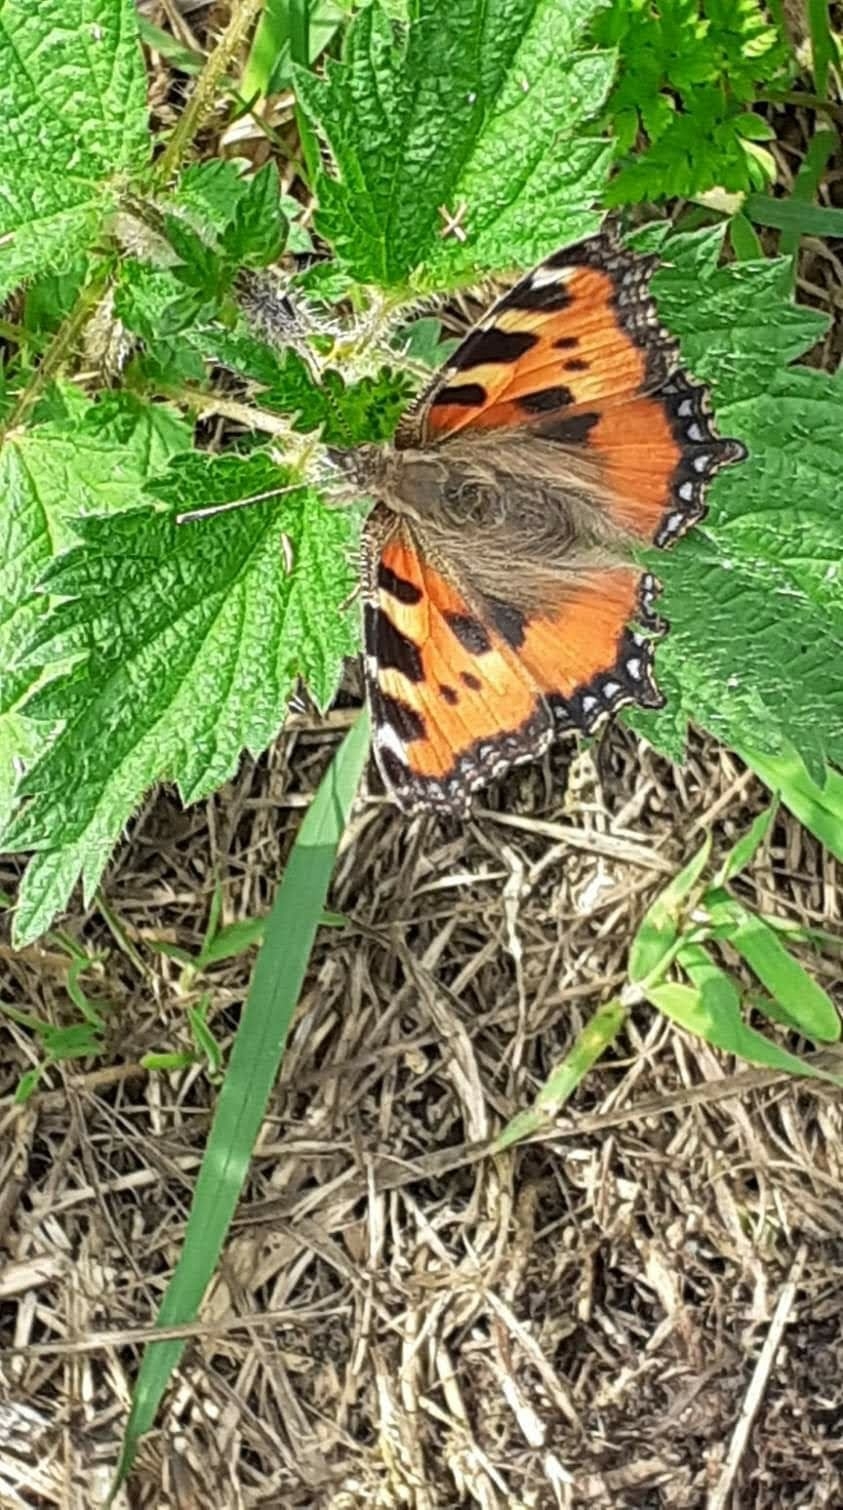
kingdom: Animalia
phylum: Arthropoda
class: Insecta
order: Lepidoptera
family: Nymphalidae
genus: Aglais
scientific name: Aglais urticae
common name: Small tortoiseshell
